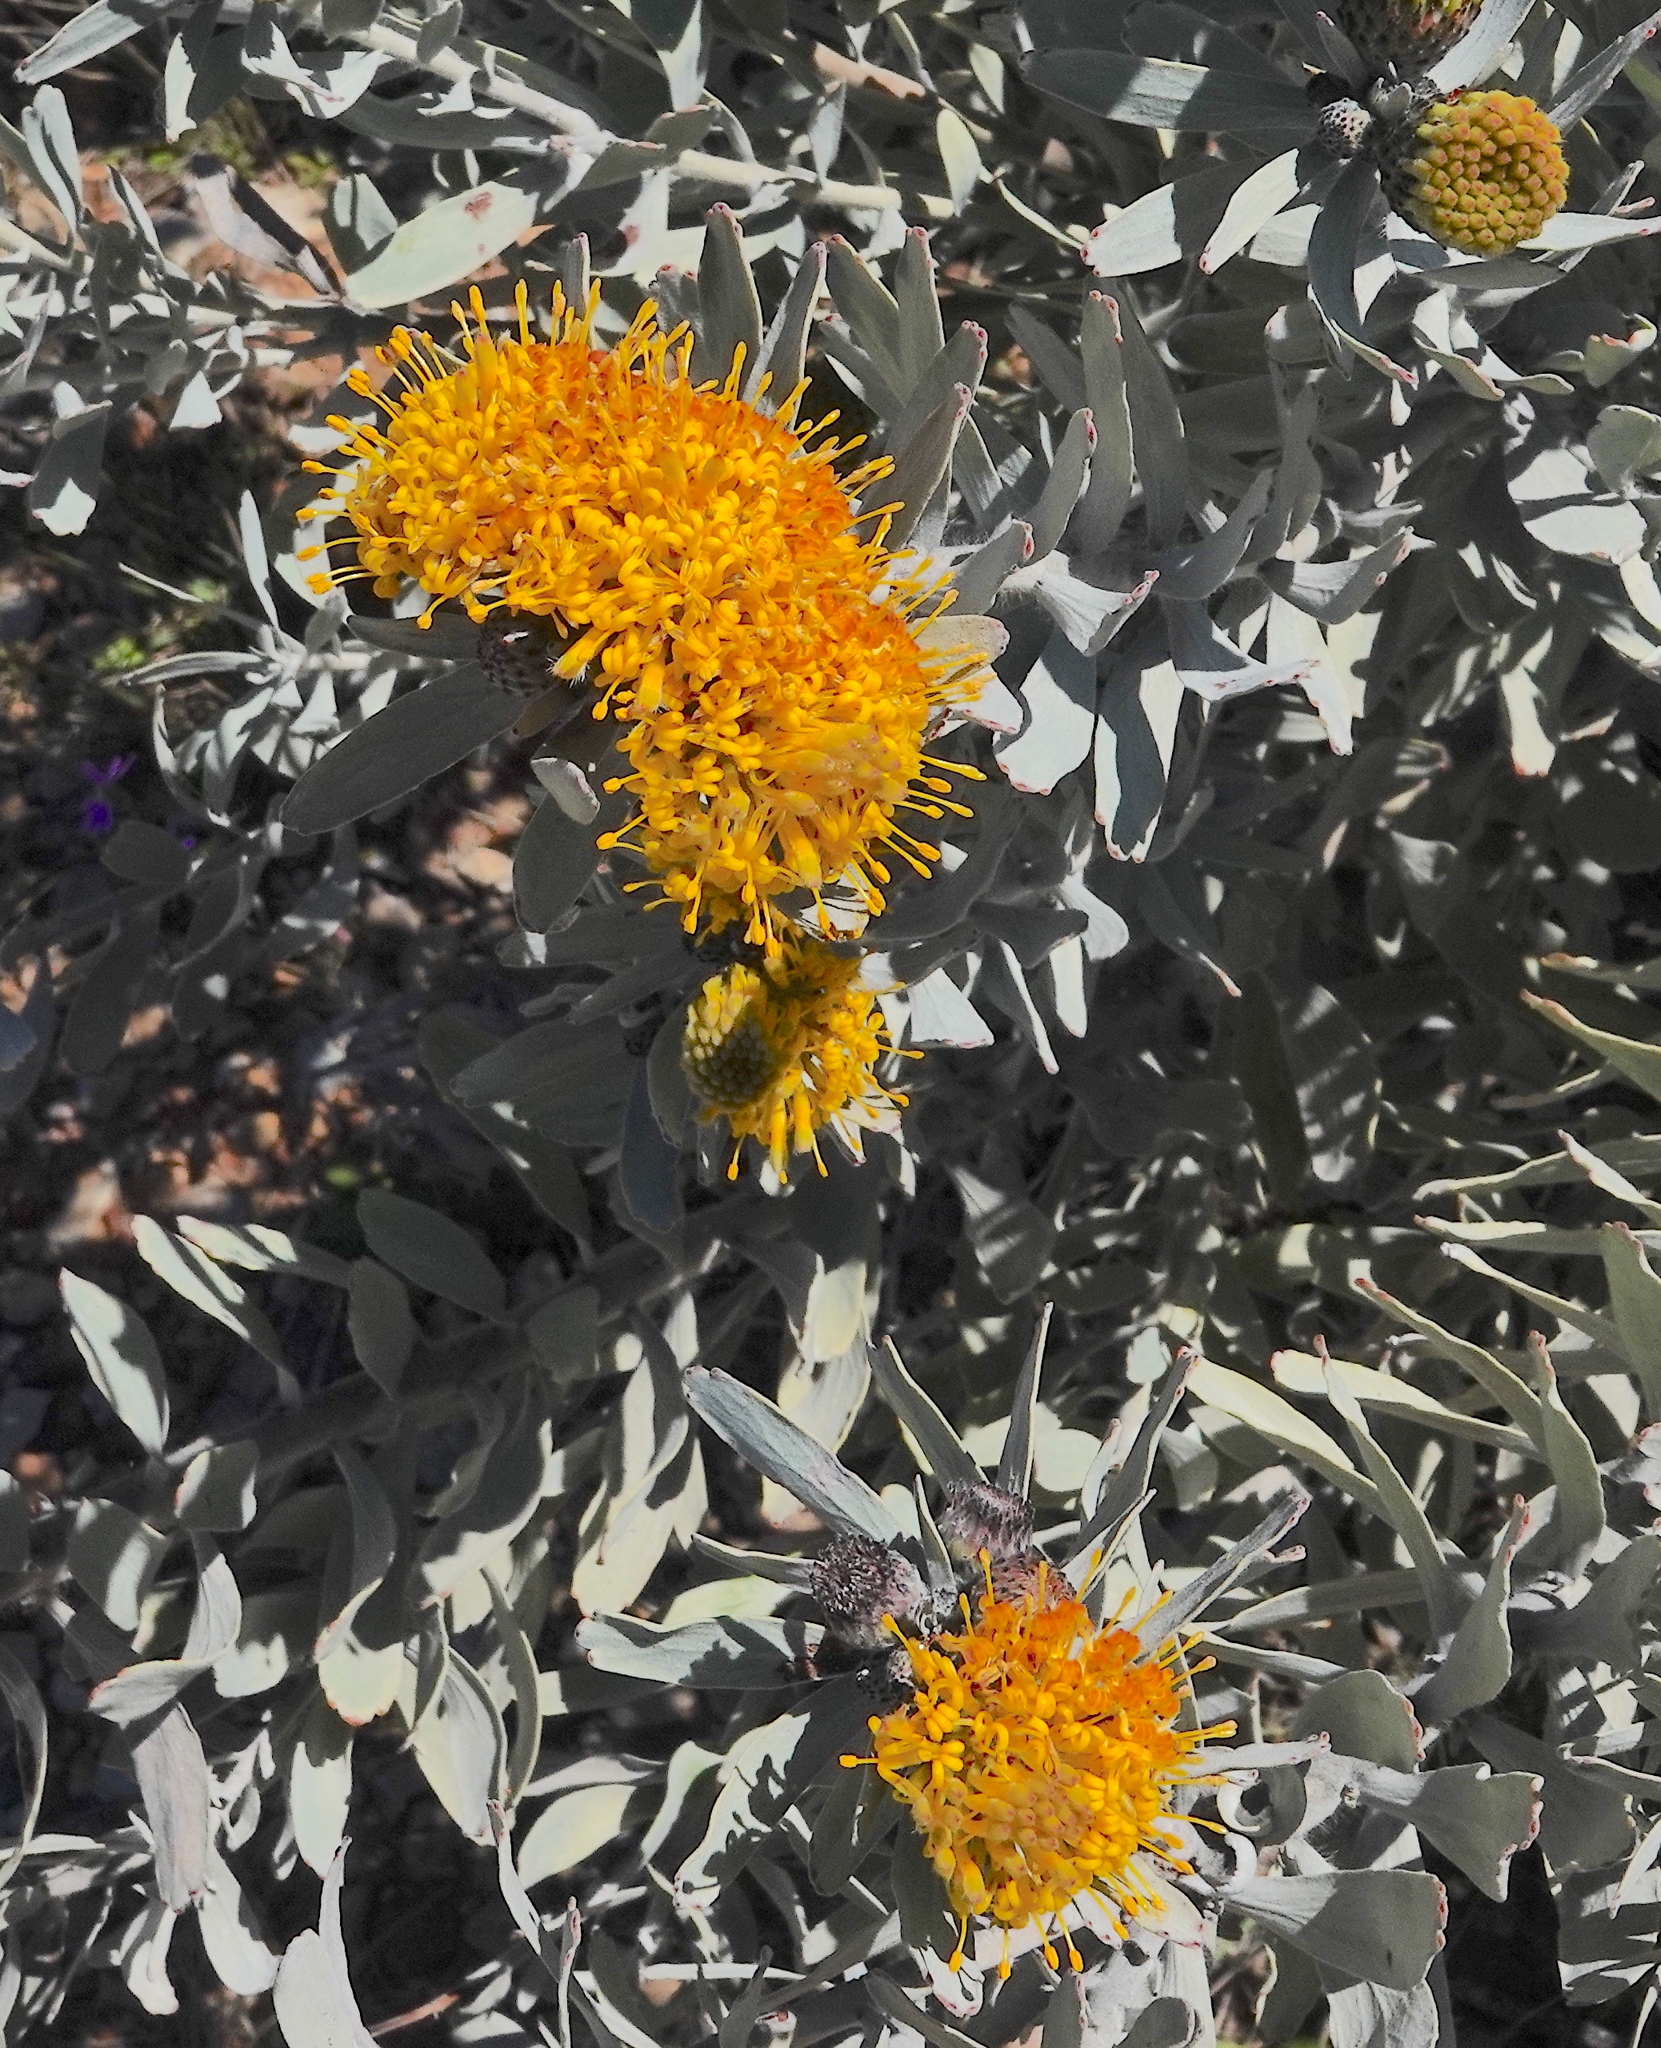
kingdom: Plantae
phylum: Tracheophyta
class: Magnoliopsida
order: Proteales
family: Proteaceae
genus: Leucospermum
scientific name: Leucospermum rodolentum
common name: Pincushion
